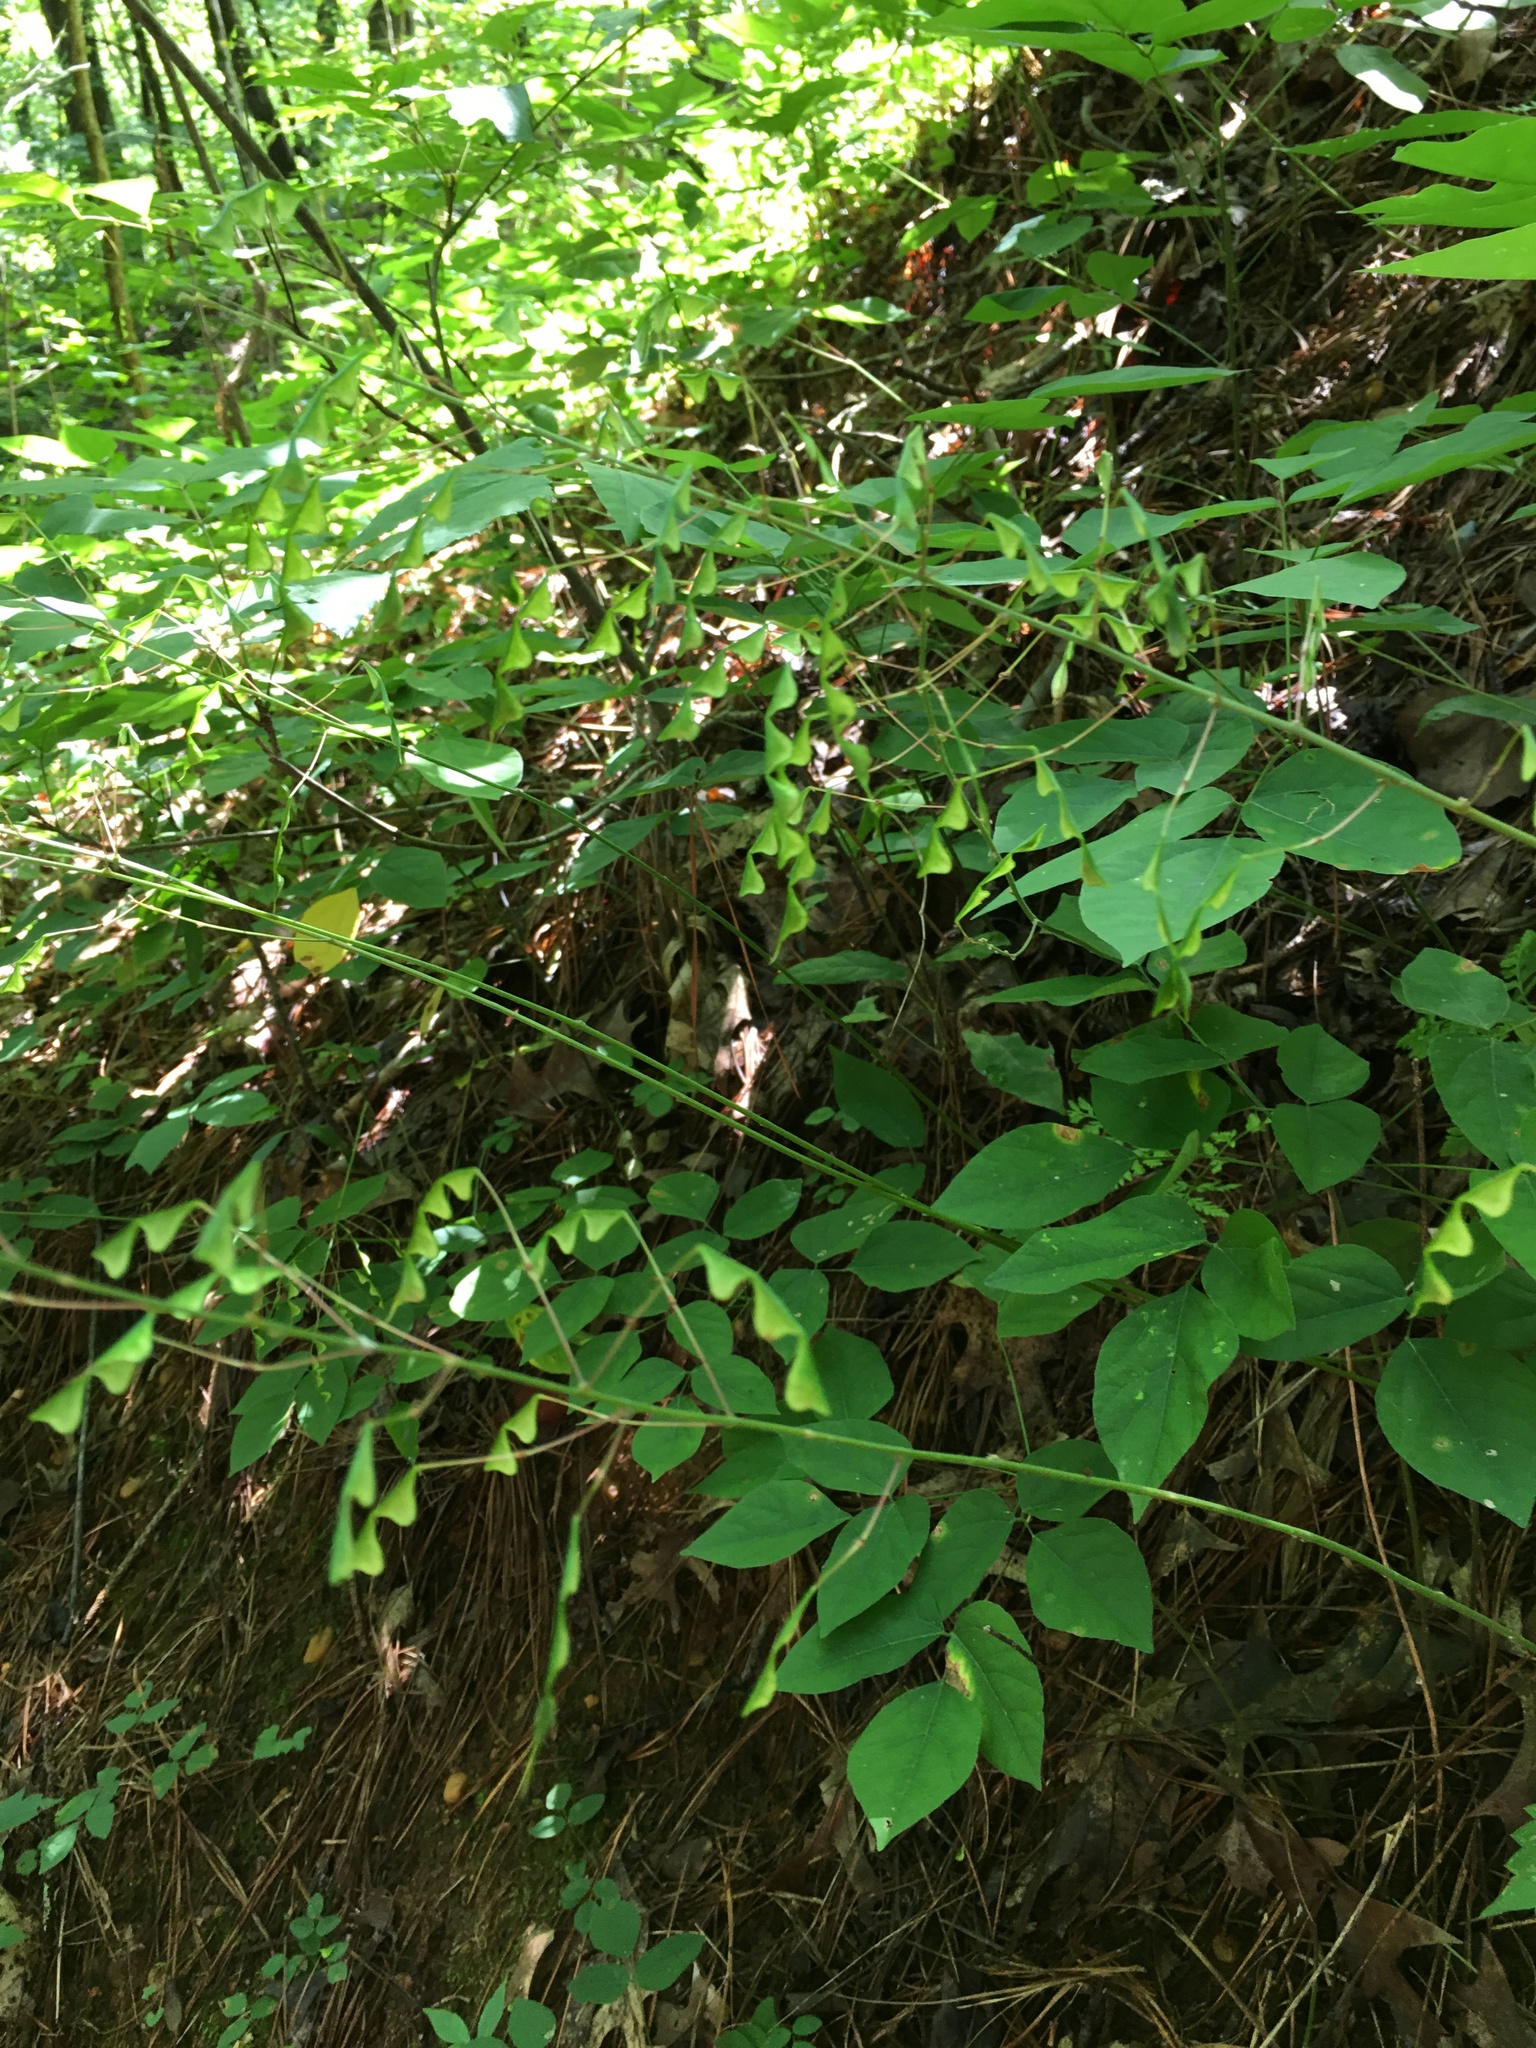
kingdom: Plantae
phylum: Tracheophyta
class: Magnoliopsida
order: Fabales
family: Fabaceae
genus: Hylodesmum
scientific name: Hylodesmum nudiflorum
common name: Bare-stemmed tick-trefoil
